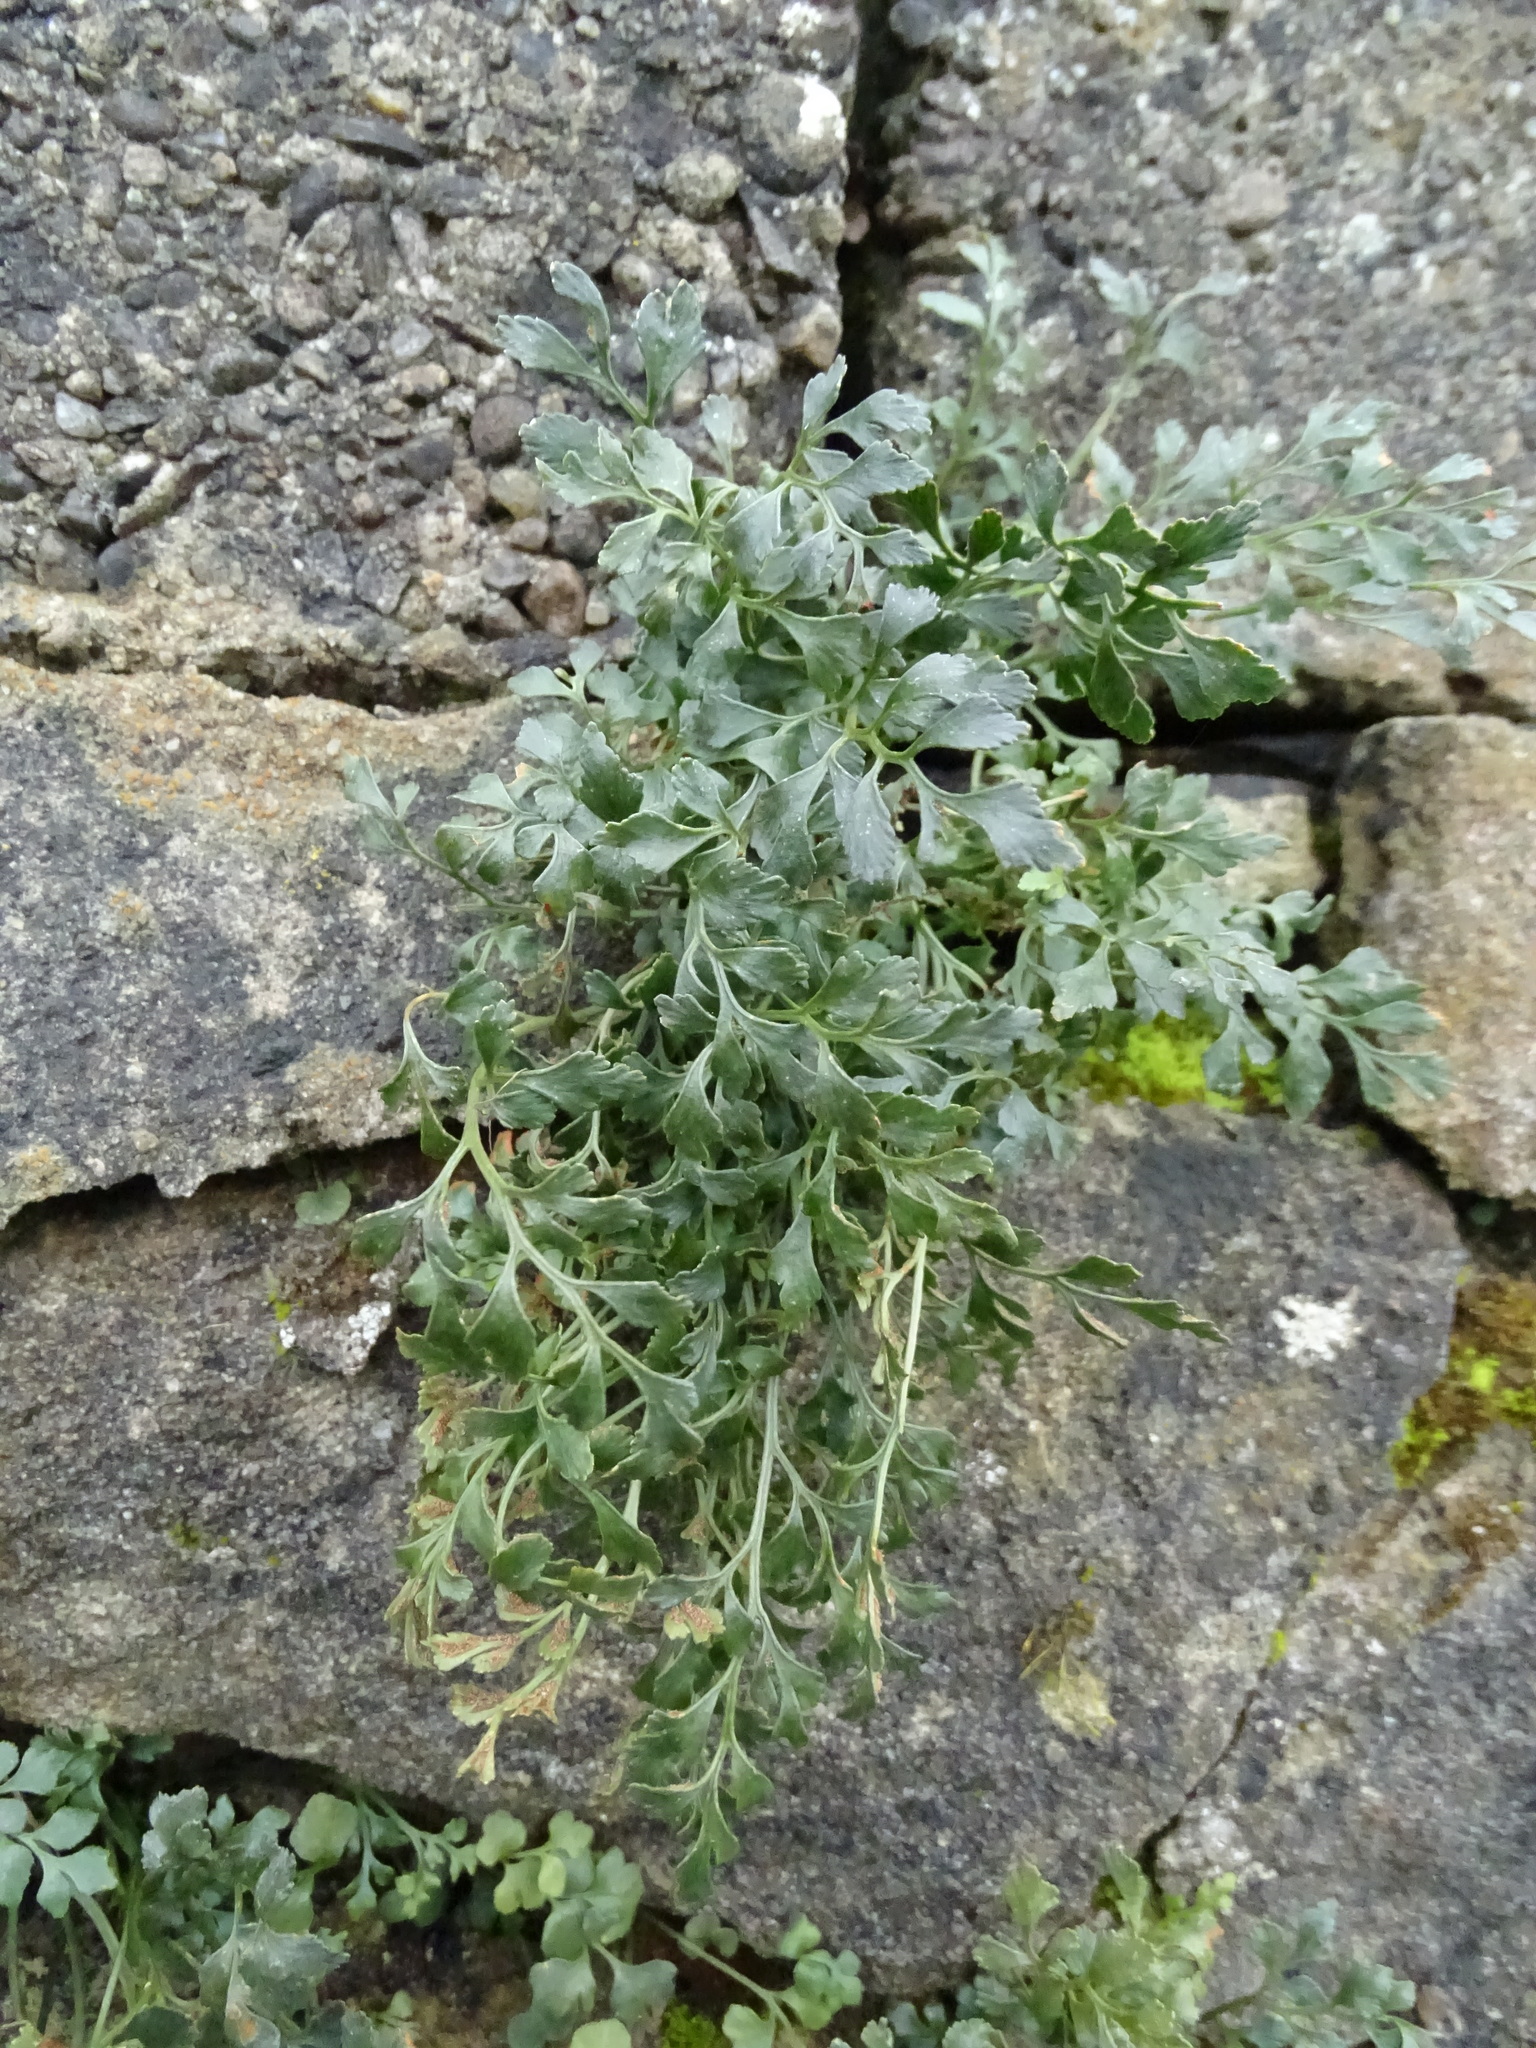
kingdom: Plantae
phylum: Tracheophyta
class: Polypodiopsida
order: Polypodiales
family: Aspleniaceae
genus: Asplenium
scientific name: Asplenium ruta-muraria
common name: Wall-rue
